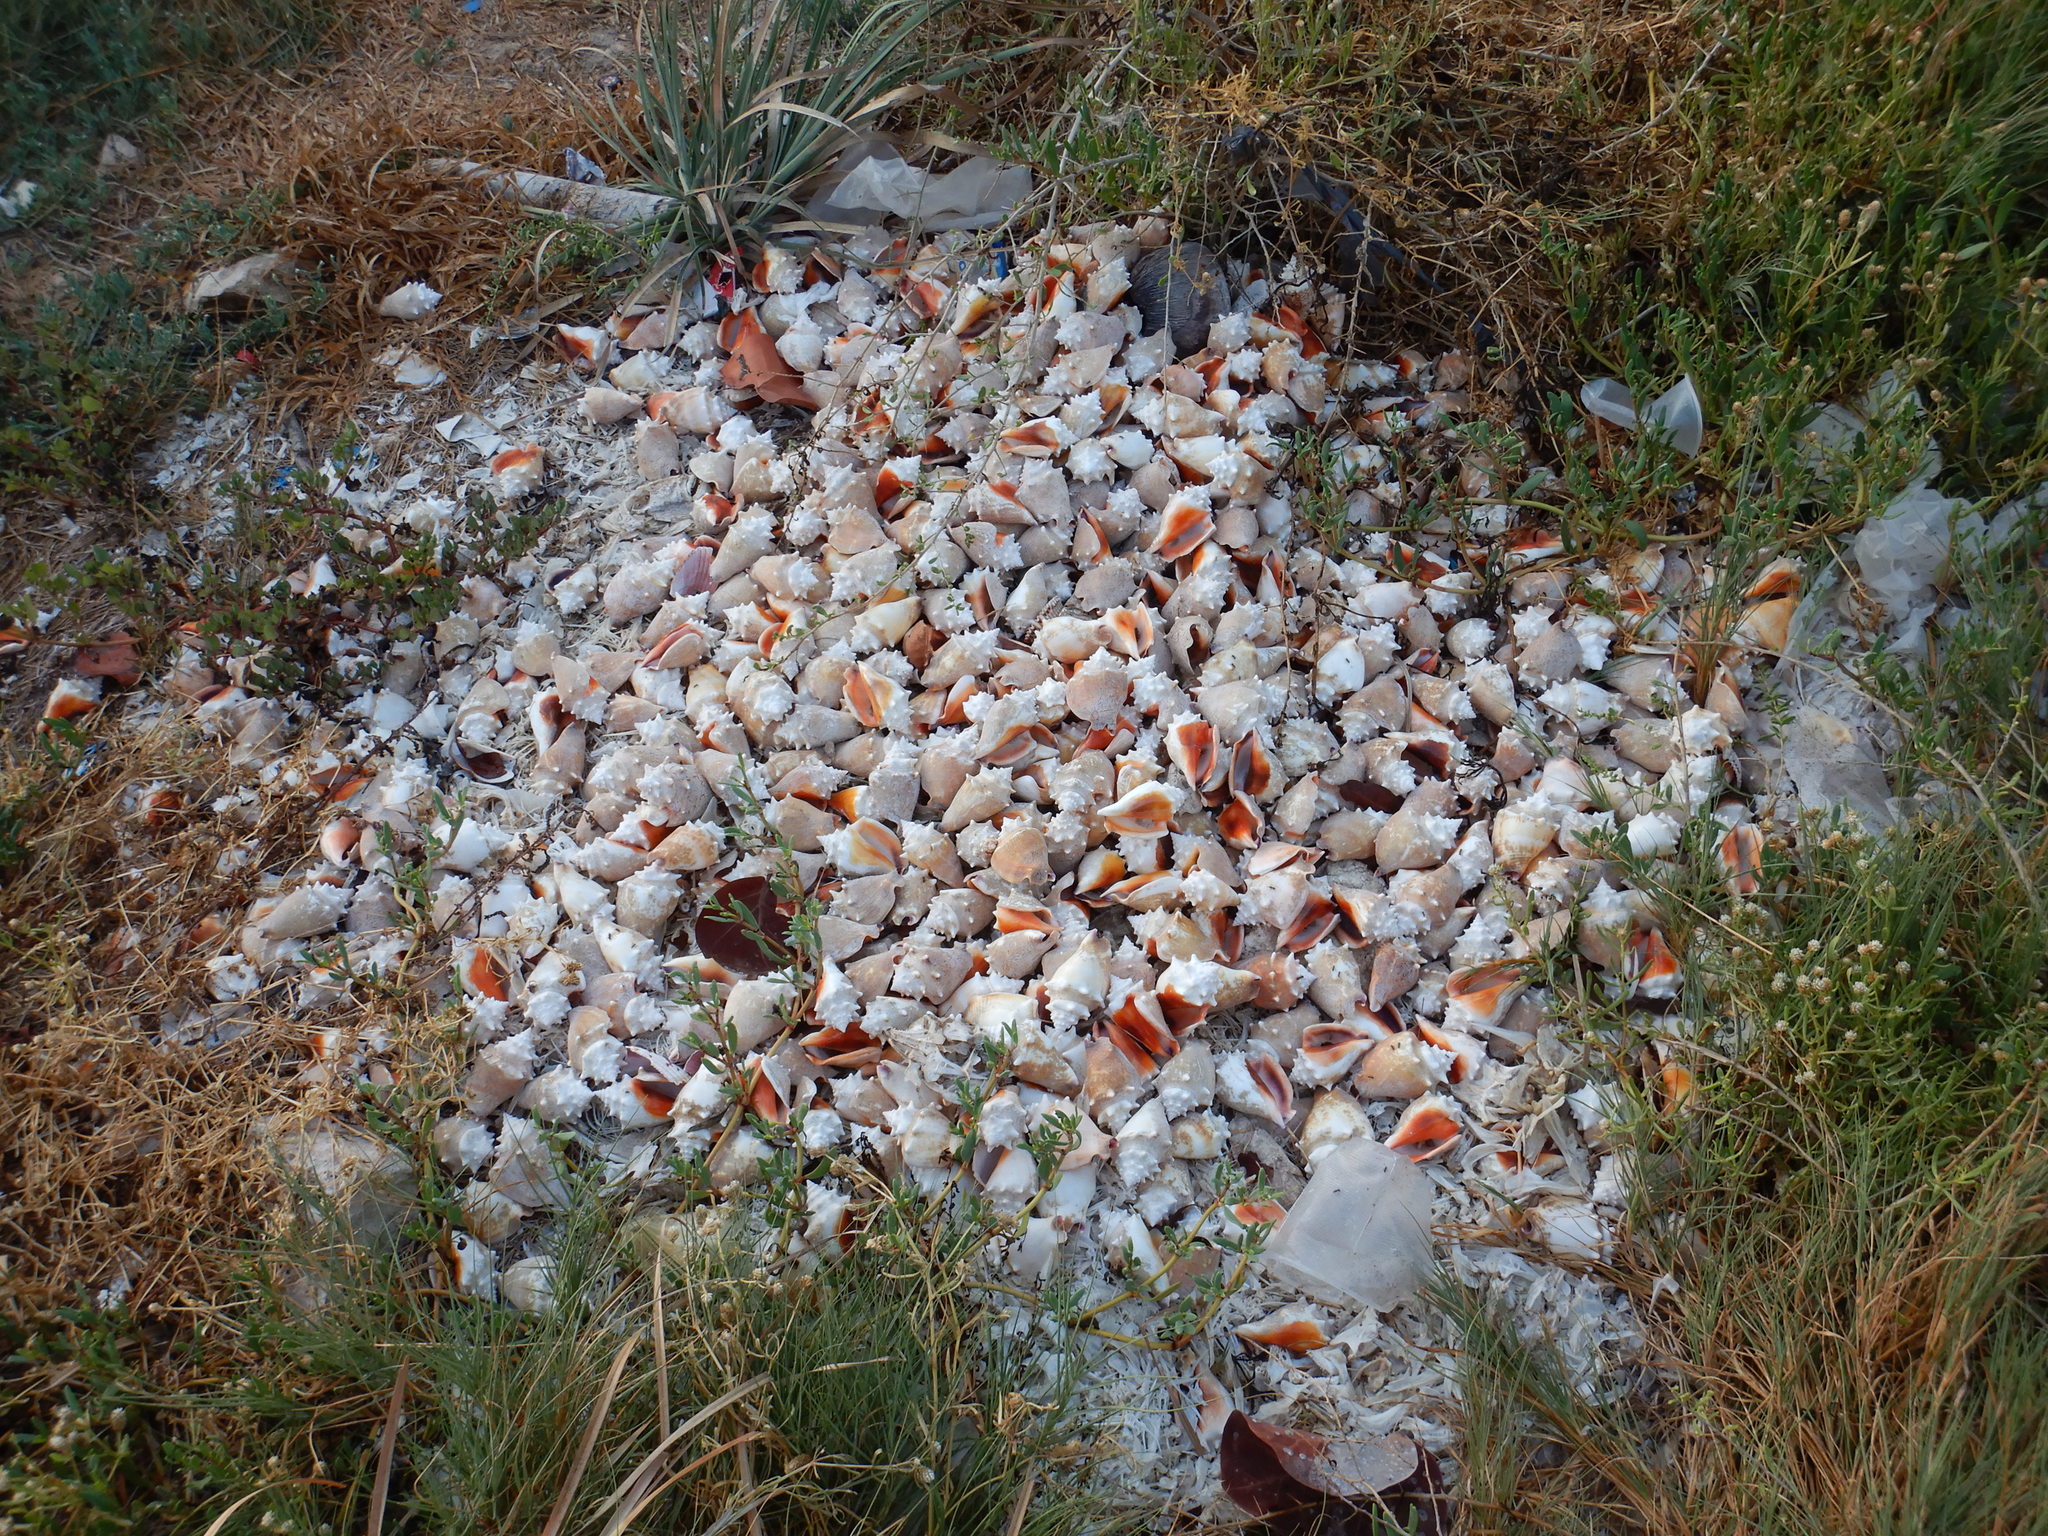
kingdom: Animalia
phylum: Mollusca
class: Gastropoda
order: Littorinimorpha
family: Strombidae
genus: Strombus
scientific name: Strombus pugilis
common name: West indian fighting conch
